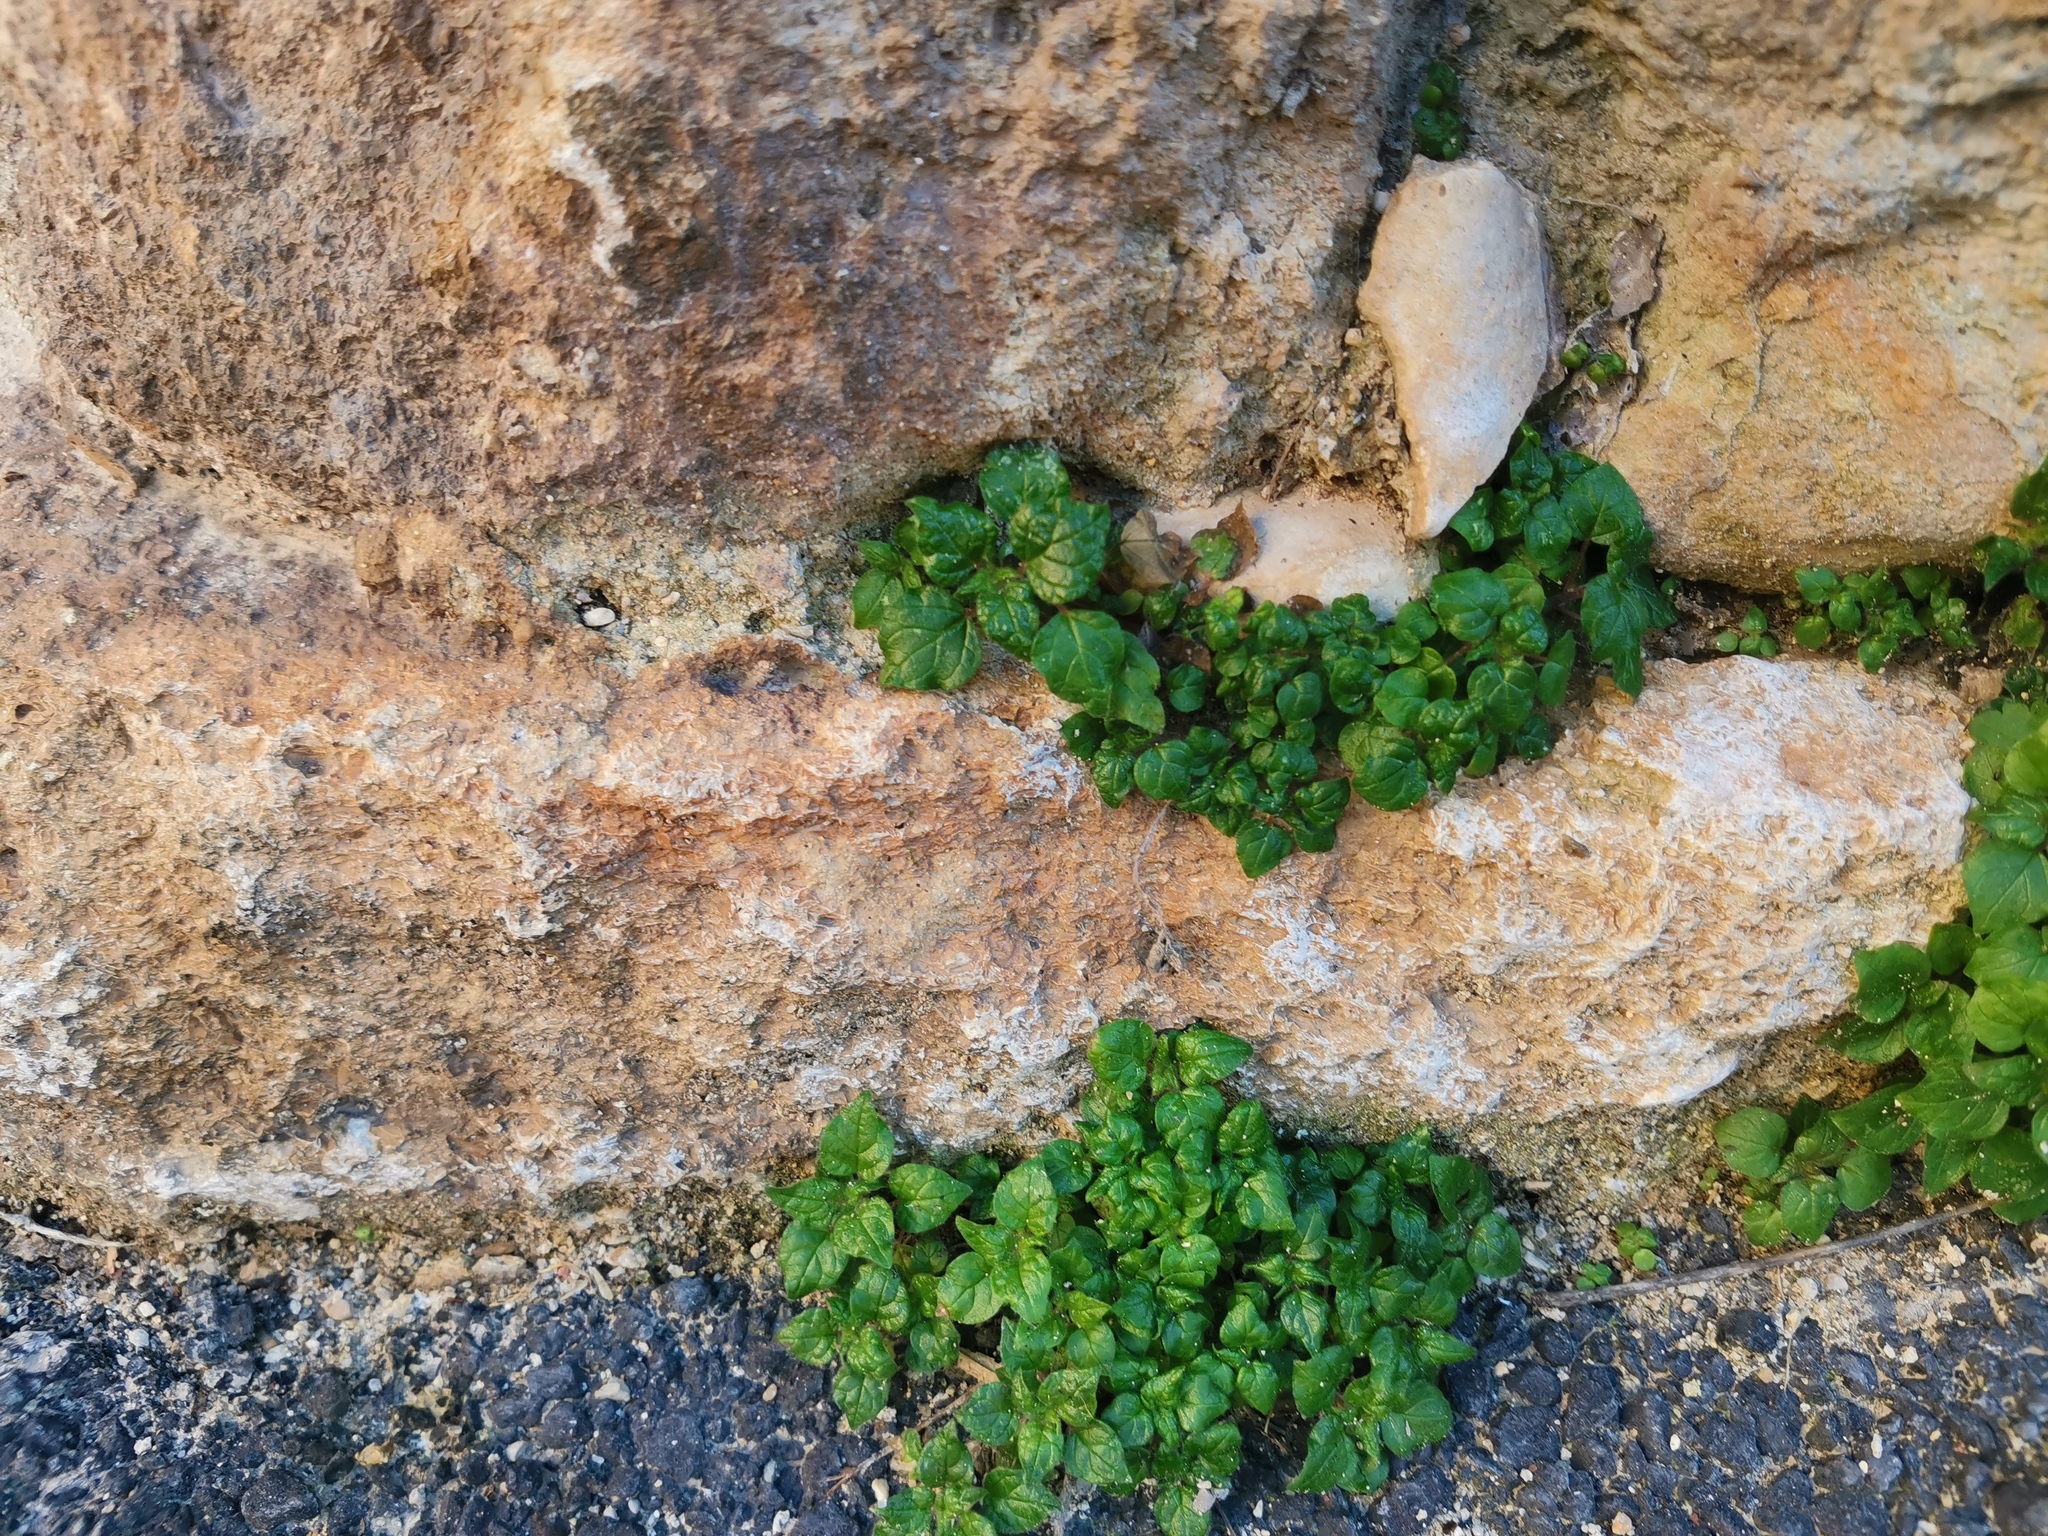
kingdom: Plantae
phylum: Tracheophyta
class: Magnoliopsida
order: Rosales
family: Urticaceae
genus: Parietaria
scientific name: Parietaria judaica
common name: Pellitory-of-the-wall
